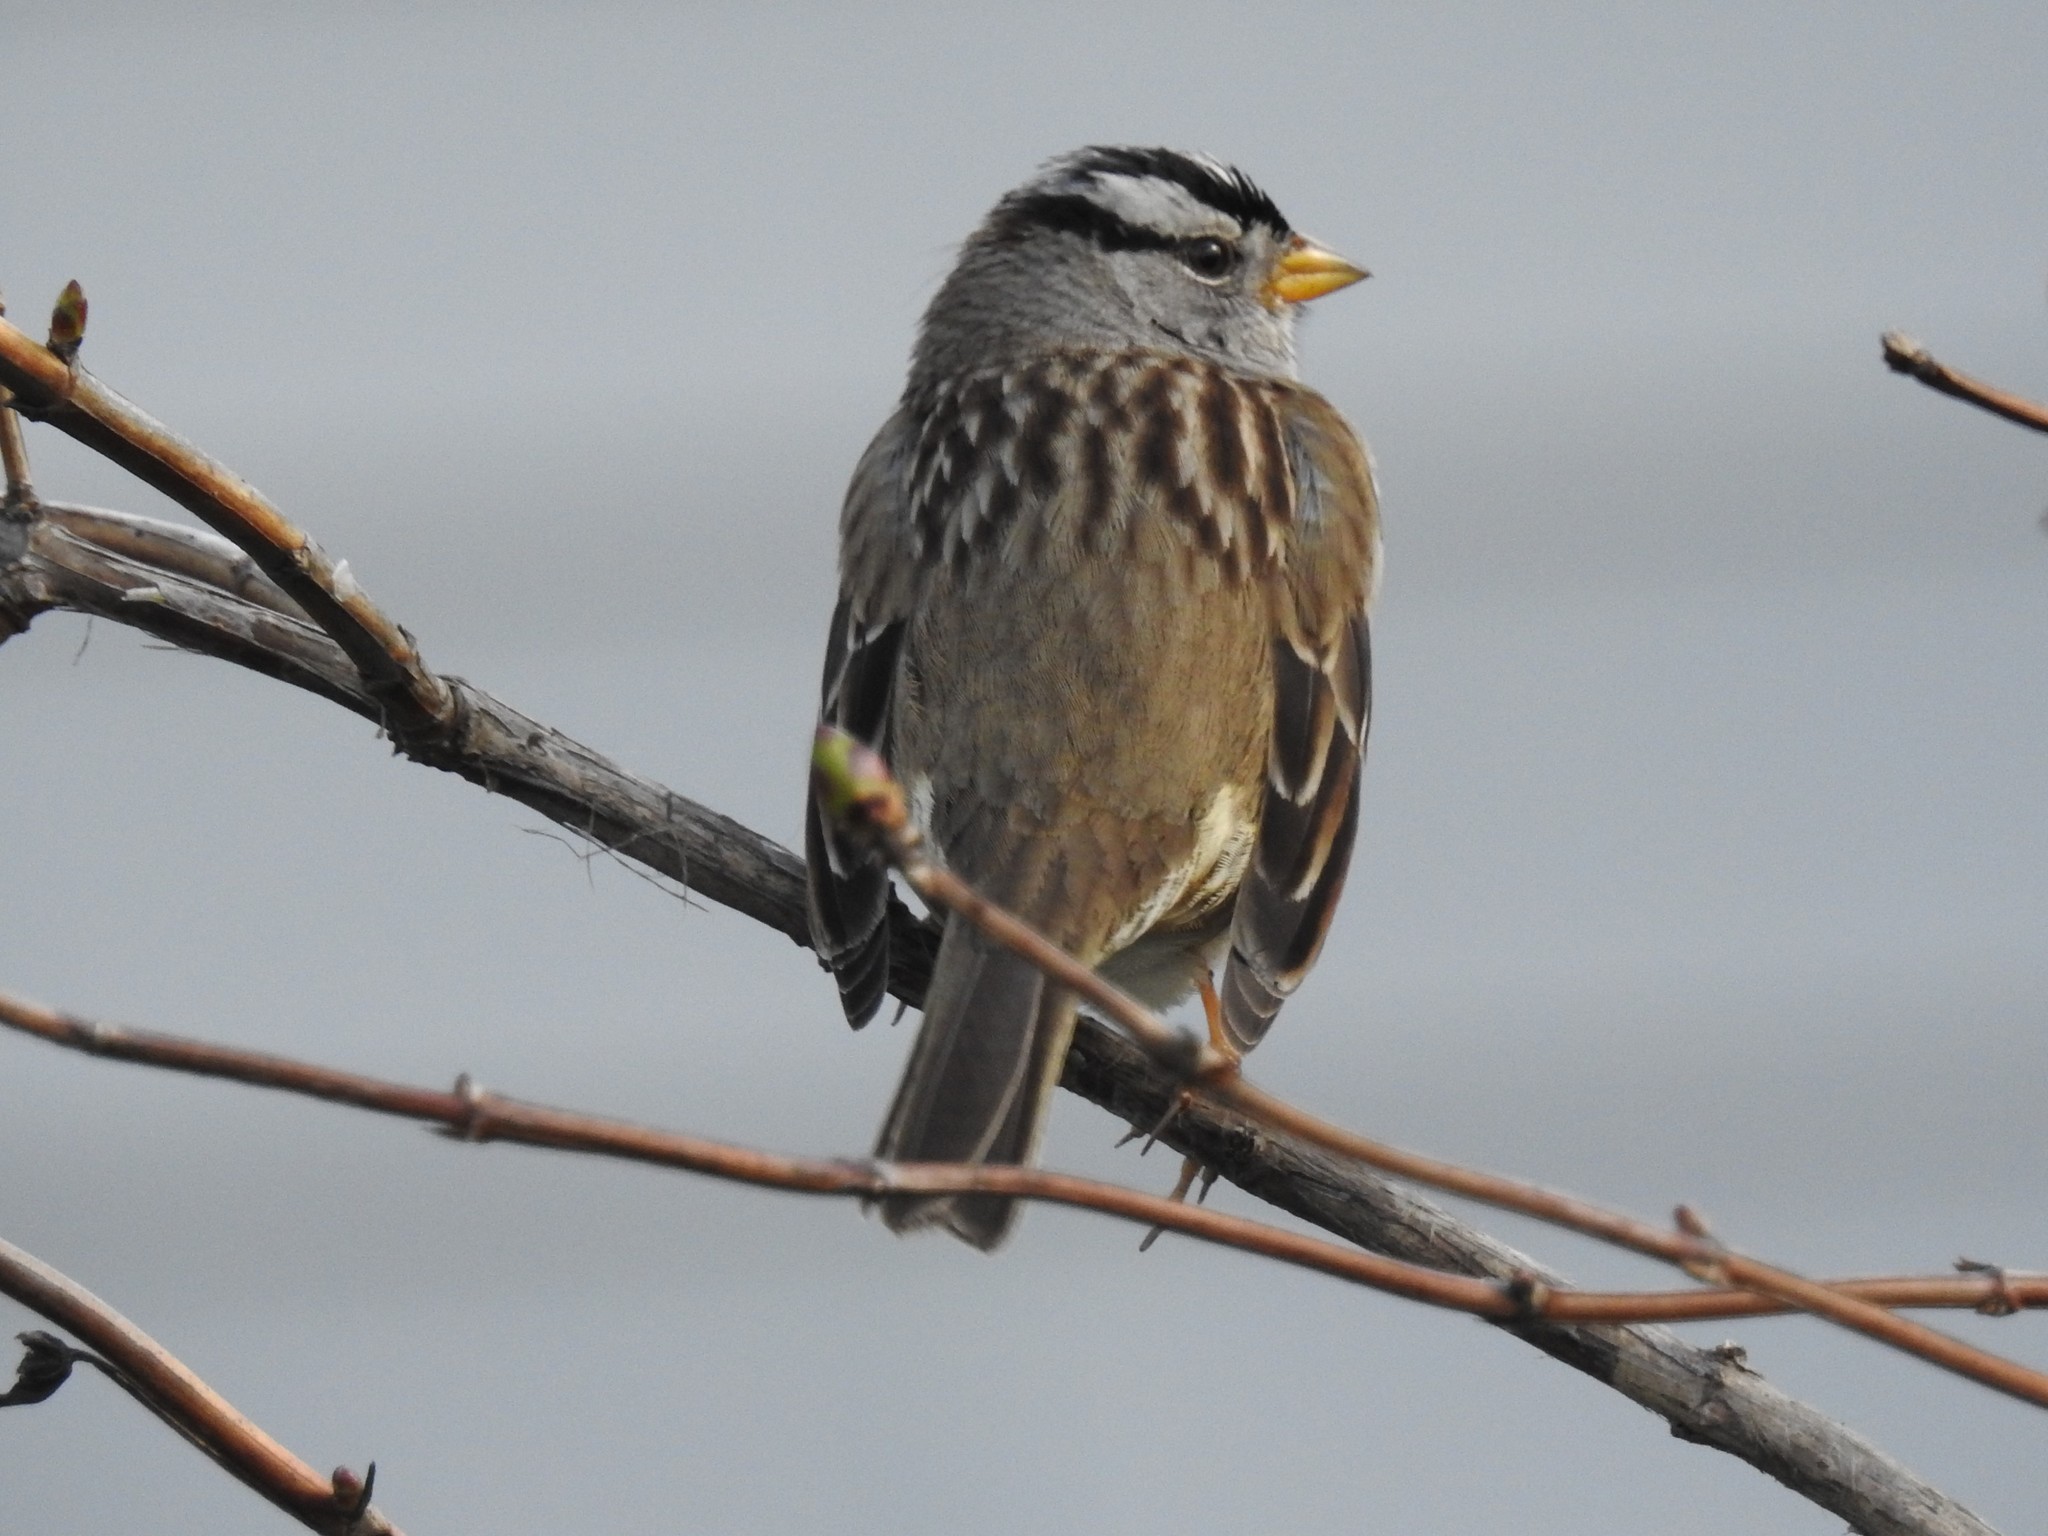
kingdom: Animalia
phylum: Chordata
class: Aves
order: Passeriformes
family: Passerellidae
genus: Zonotrichia
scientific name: Zonotrichia leucophrys
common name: White-crowned sparrow
